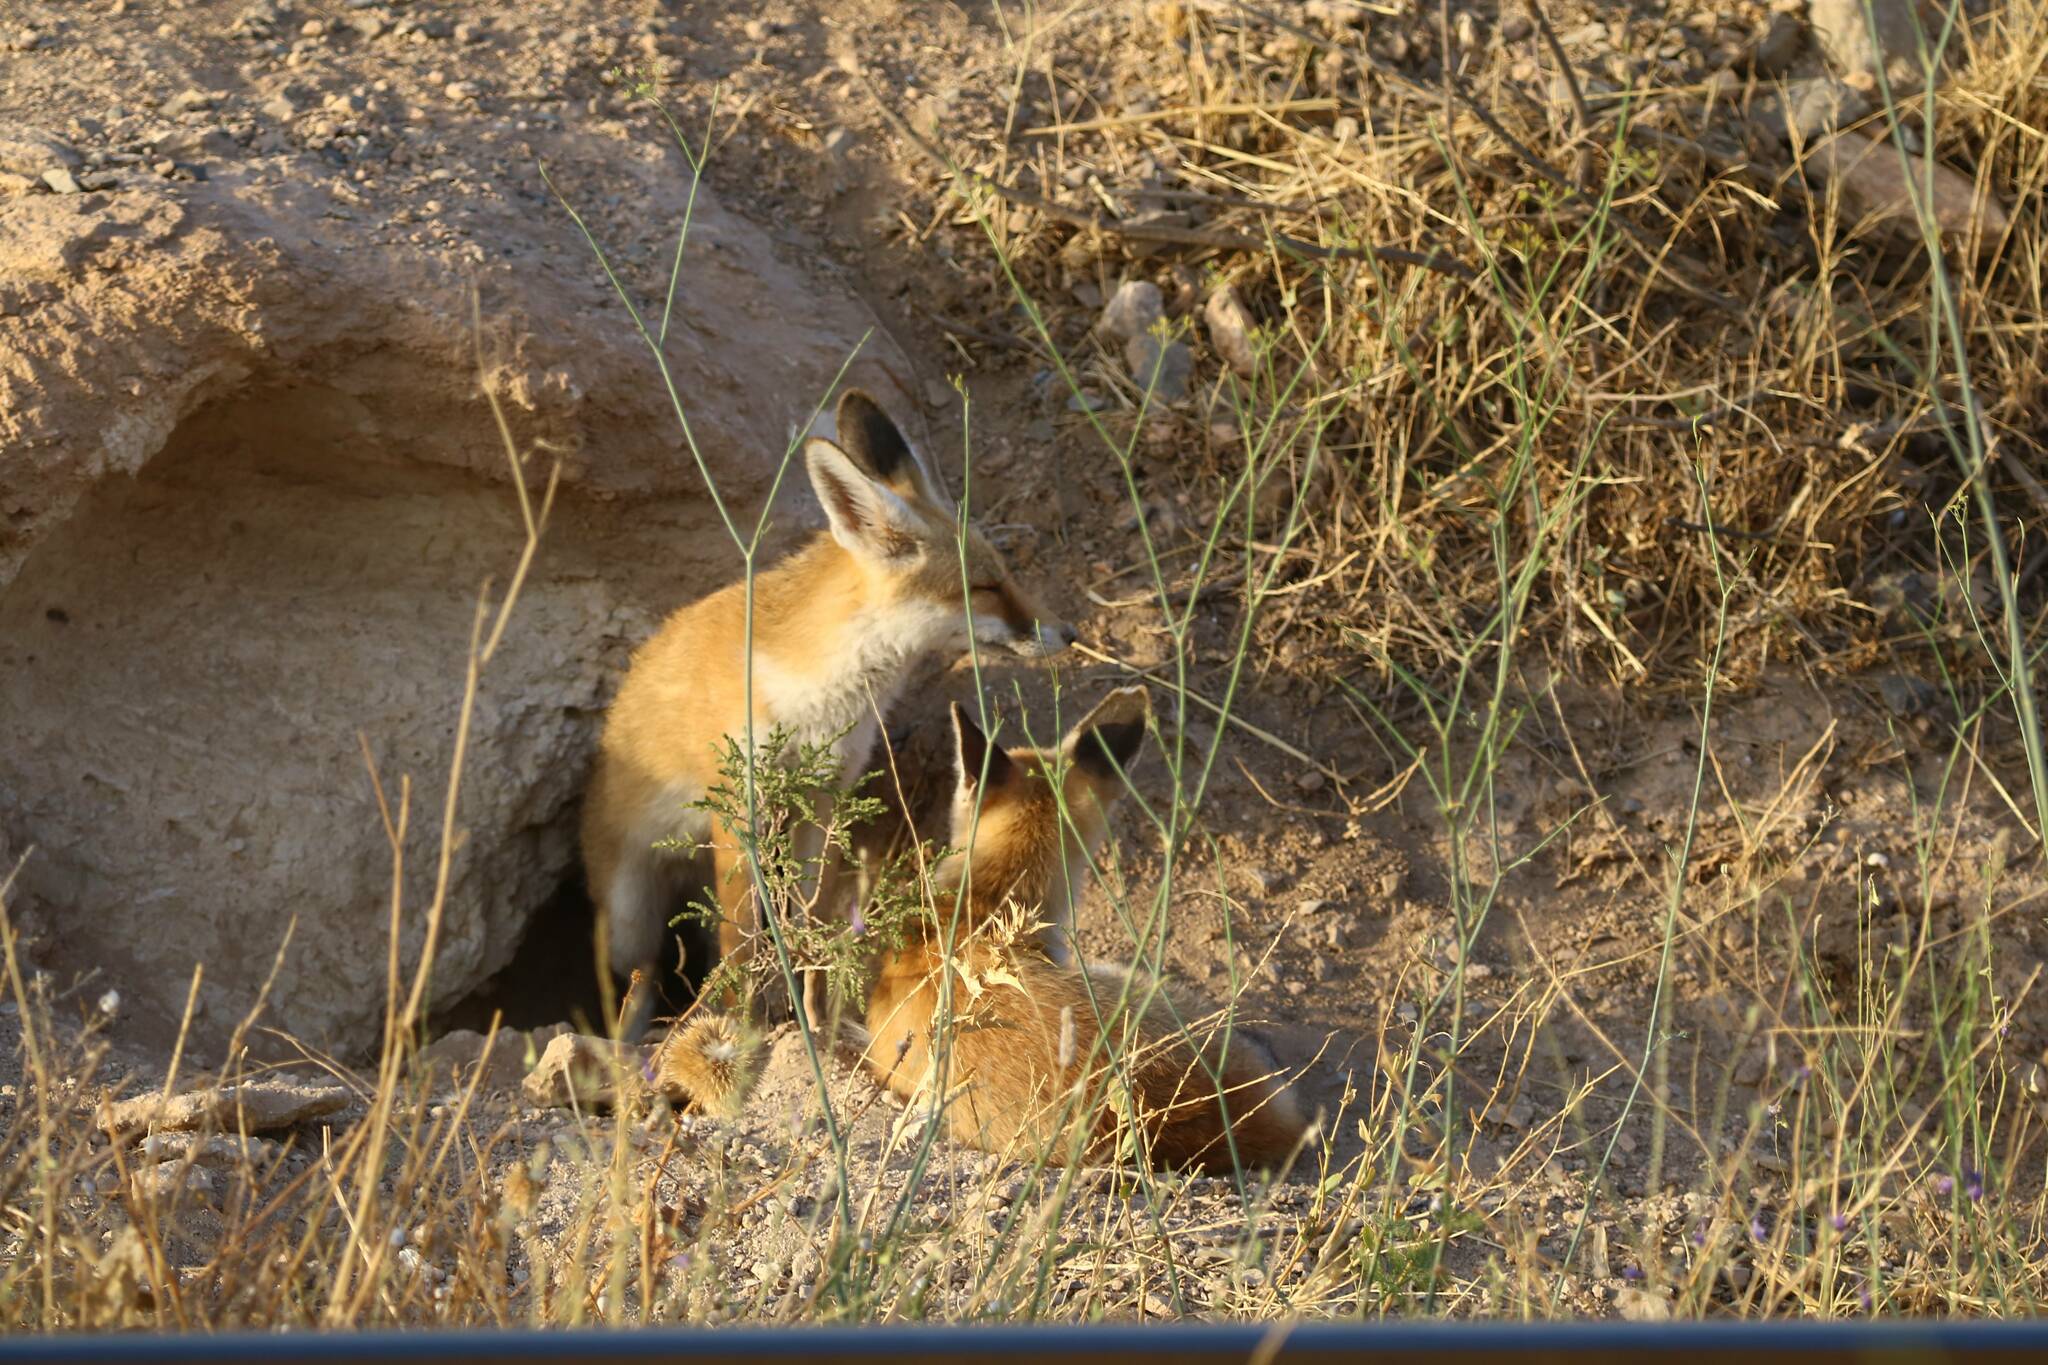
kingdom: Animalia
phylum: Chordata
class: Mammalia
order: Carnivora
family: Canidae
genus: Vulpes
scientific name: Vulpes vulpes
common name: Red fox
